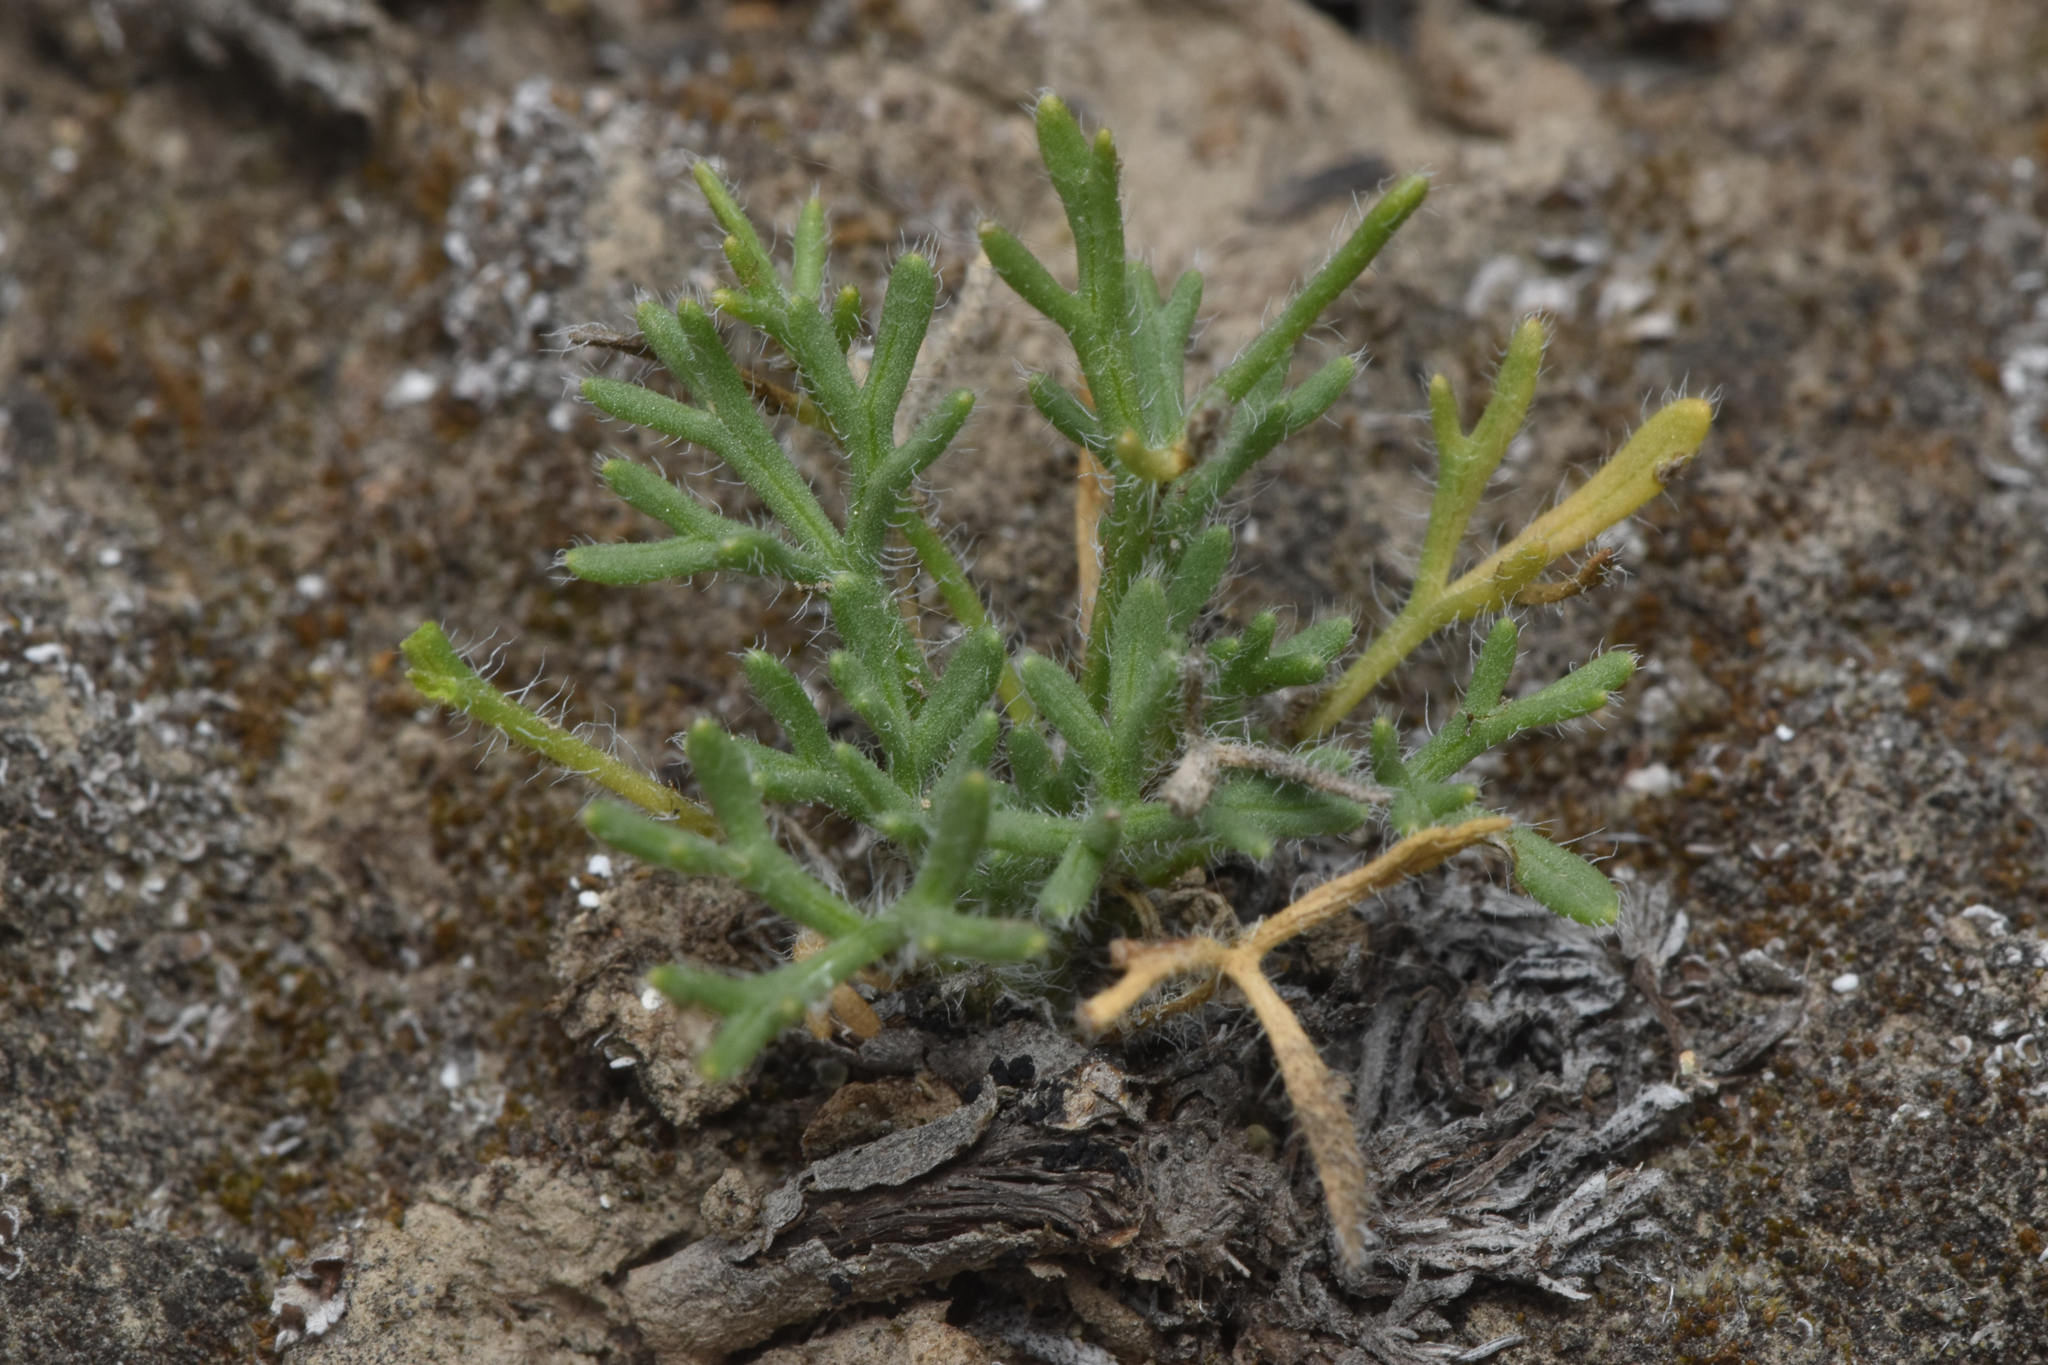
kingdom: Plantae
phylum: Tracheophyta
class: Magnoliopsida
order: Asterales
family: Asteraceae
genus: Erigeron
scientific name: Erigeron compositus
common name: Dwarf mountain fleabane
